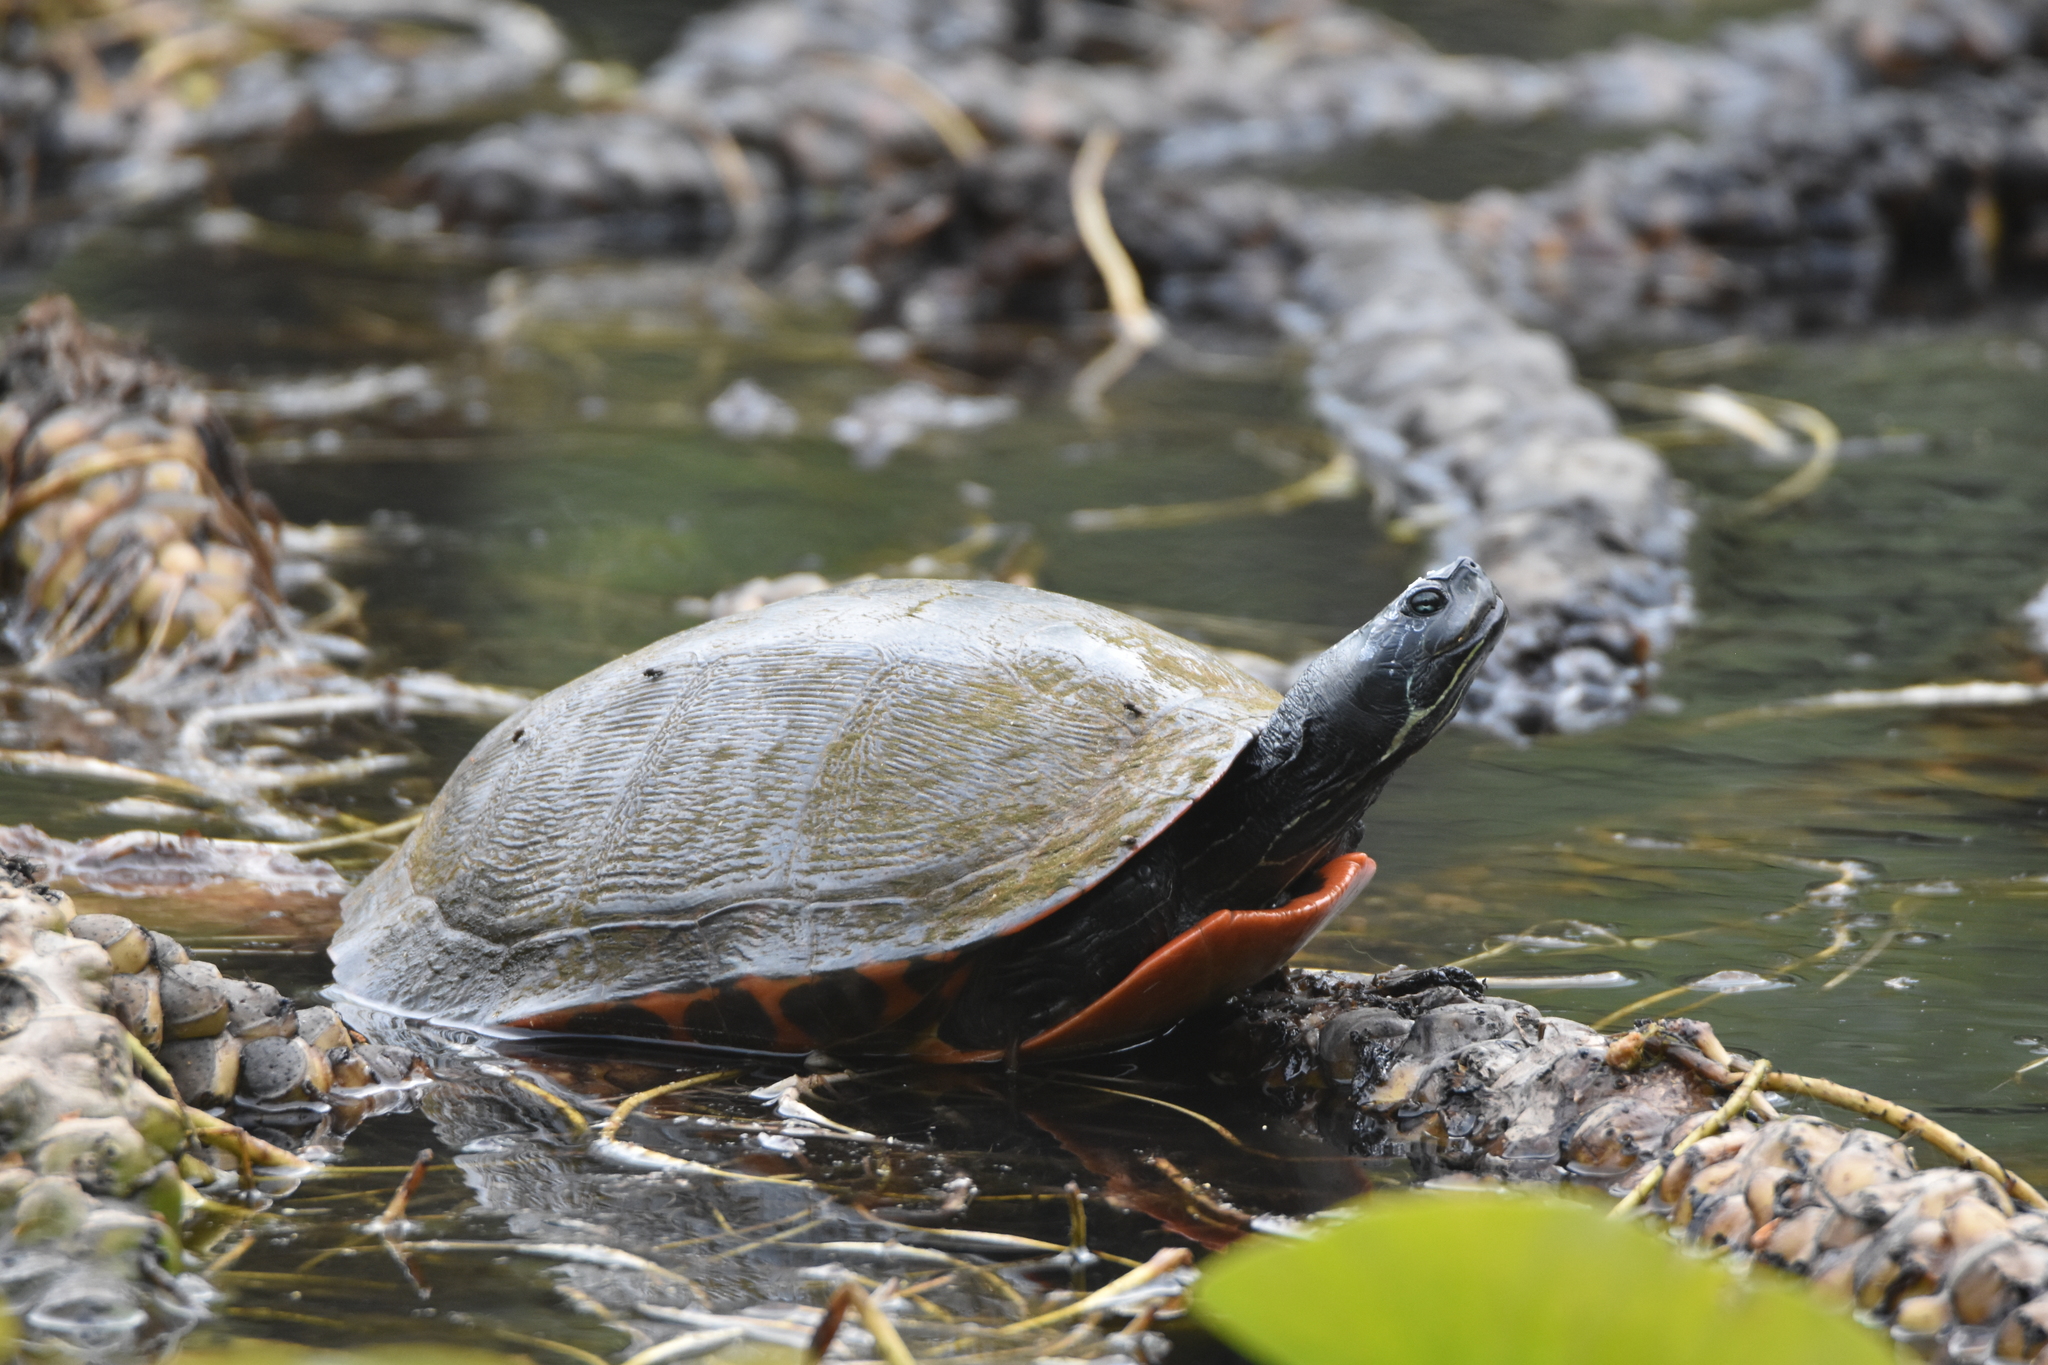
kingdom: Animalia
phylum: Chordata
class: Testudines
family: Emydidae
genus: Pseudemys
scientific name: Pseudemys rubriventris
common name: American red-bellied turtle
